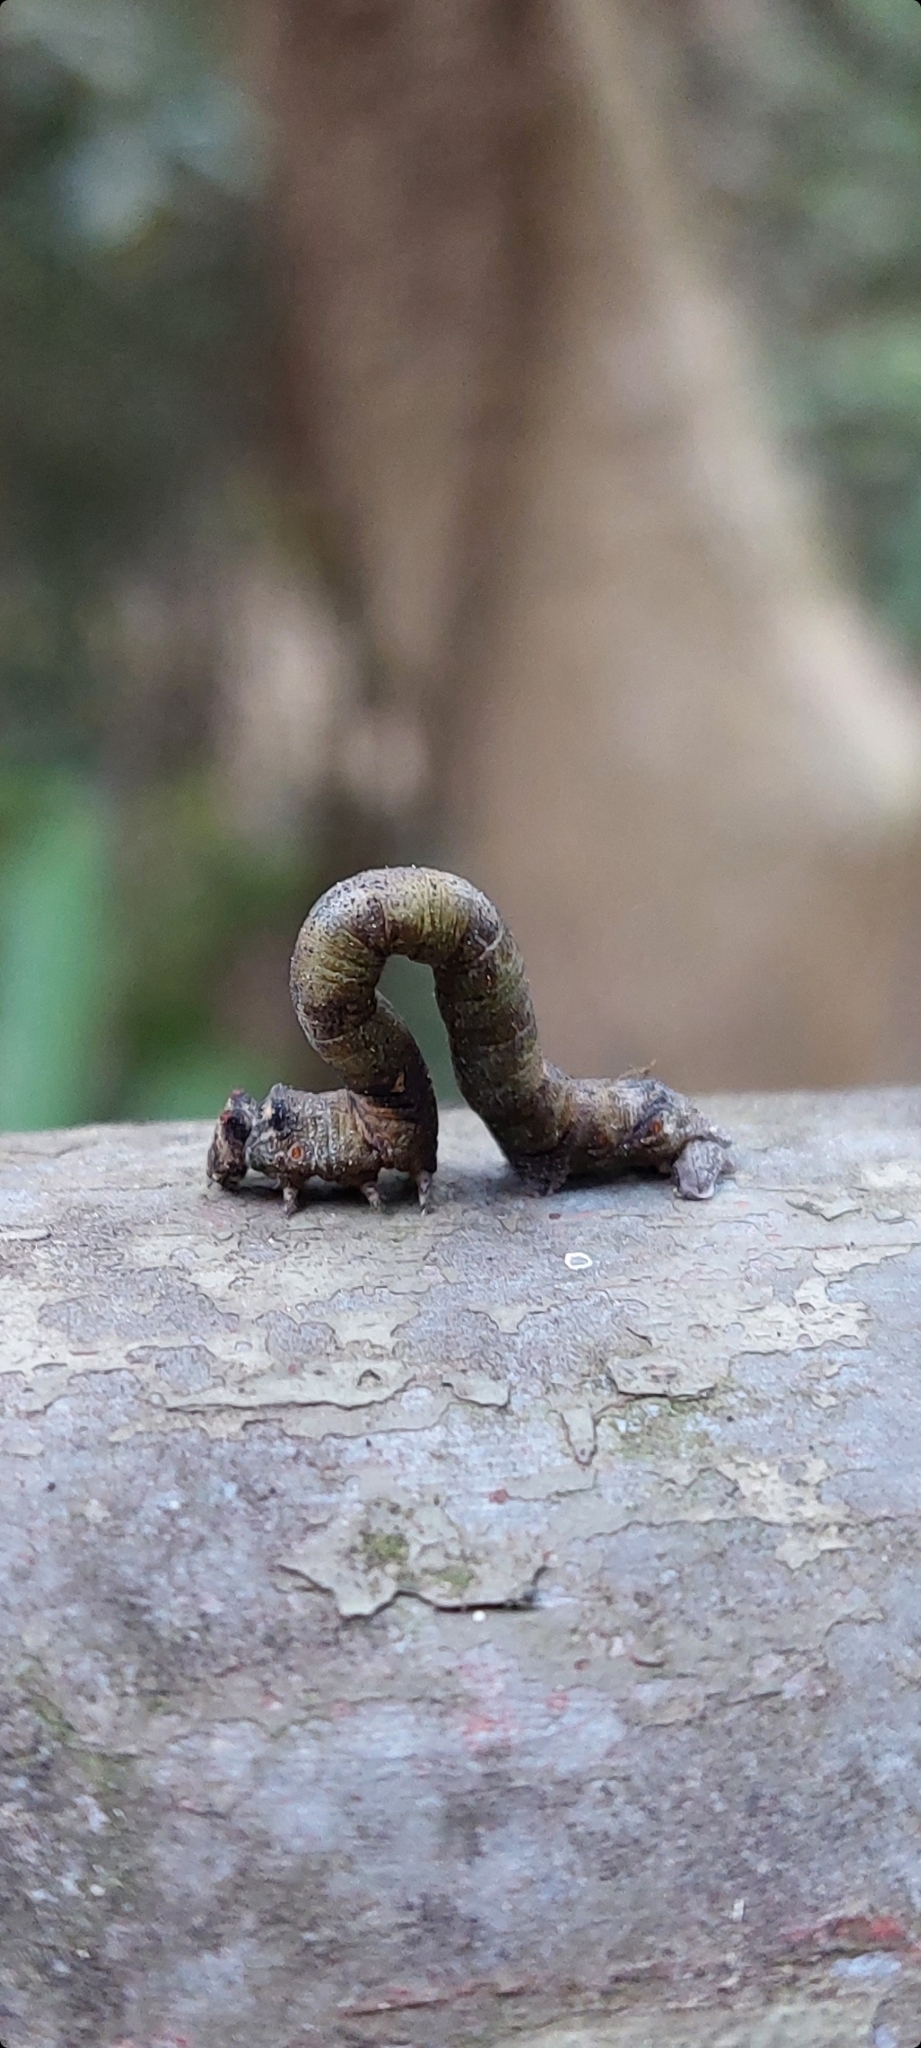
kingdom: Animalia
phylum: Arthropoda
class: Insecta
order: Lepidoptera
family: Geometridae
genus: Biston
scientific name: Biston suppressaria
